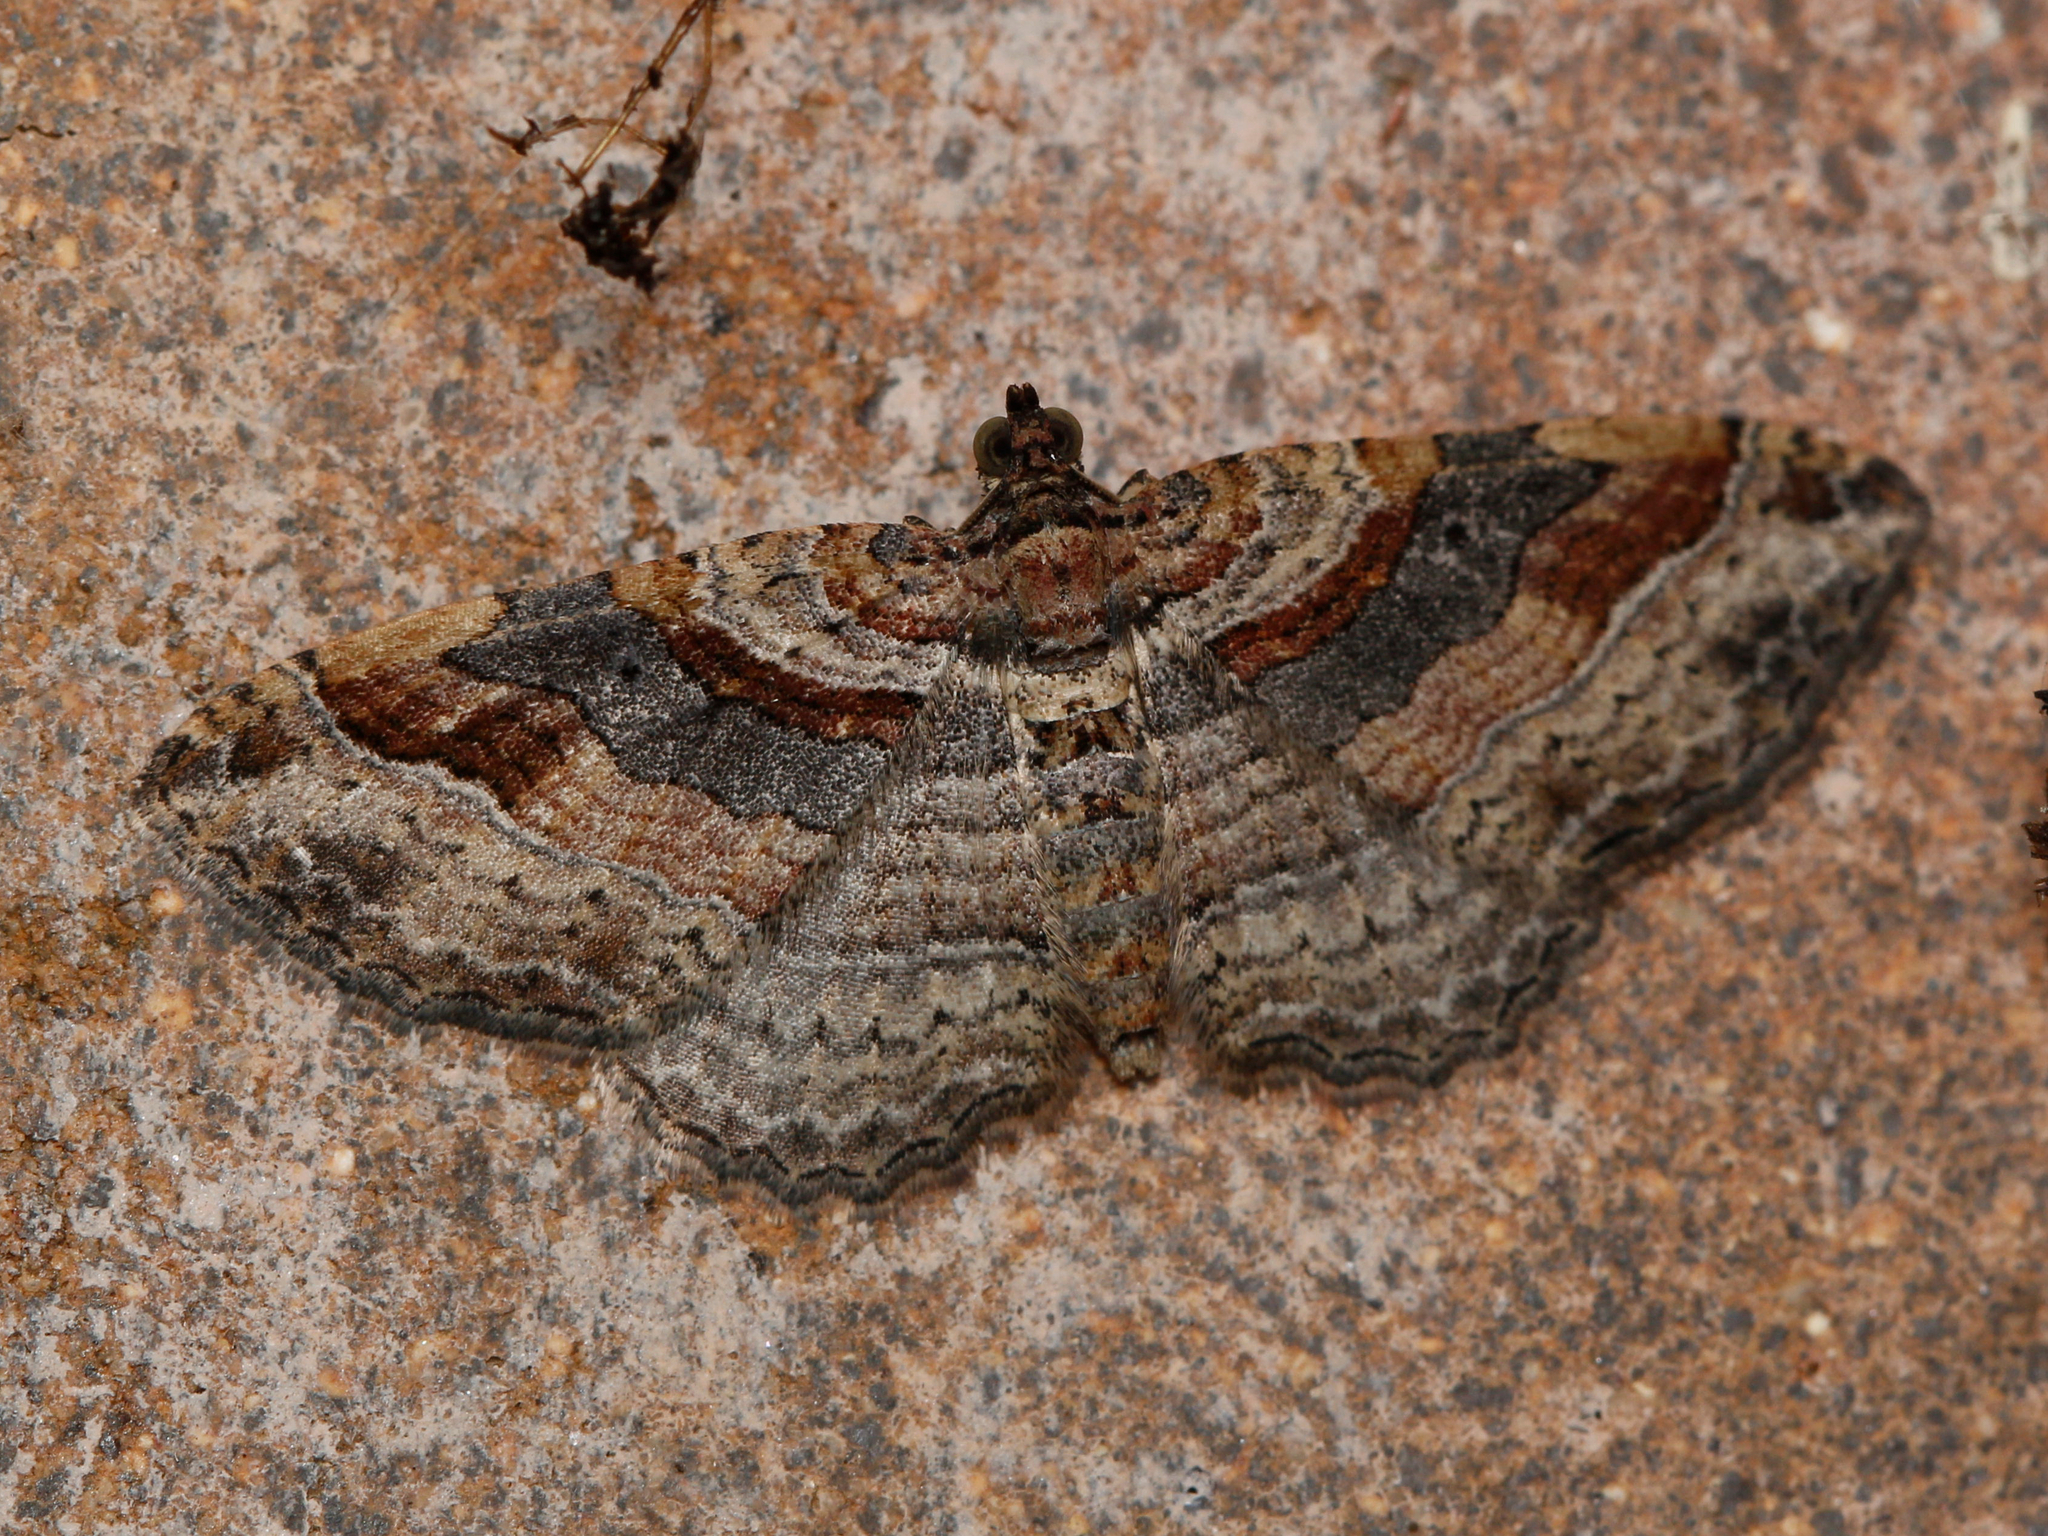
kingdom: Animalia
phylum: Arthropoda
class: Insecta
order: Lepidoptera
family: Geometridae
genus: Costaconvexa
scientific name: Costaconvexa centrostrigaria
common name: Bent-line carpet
